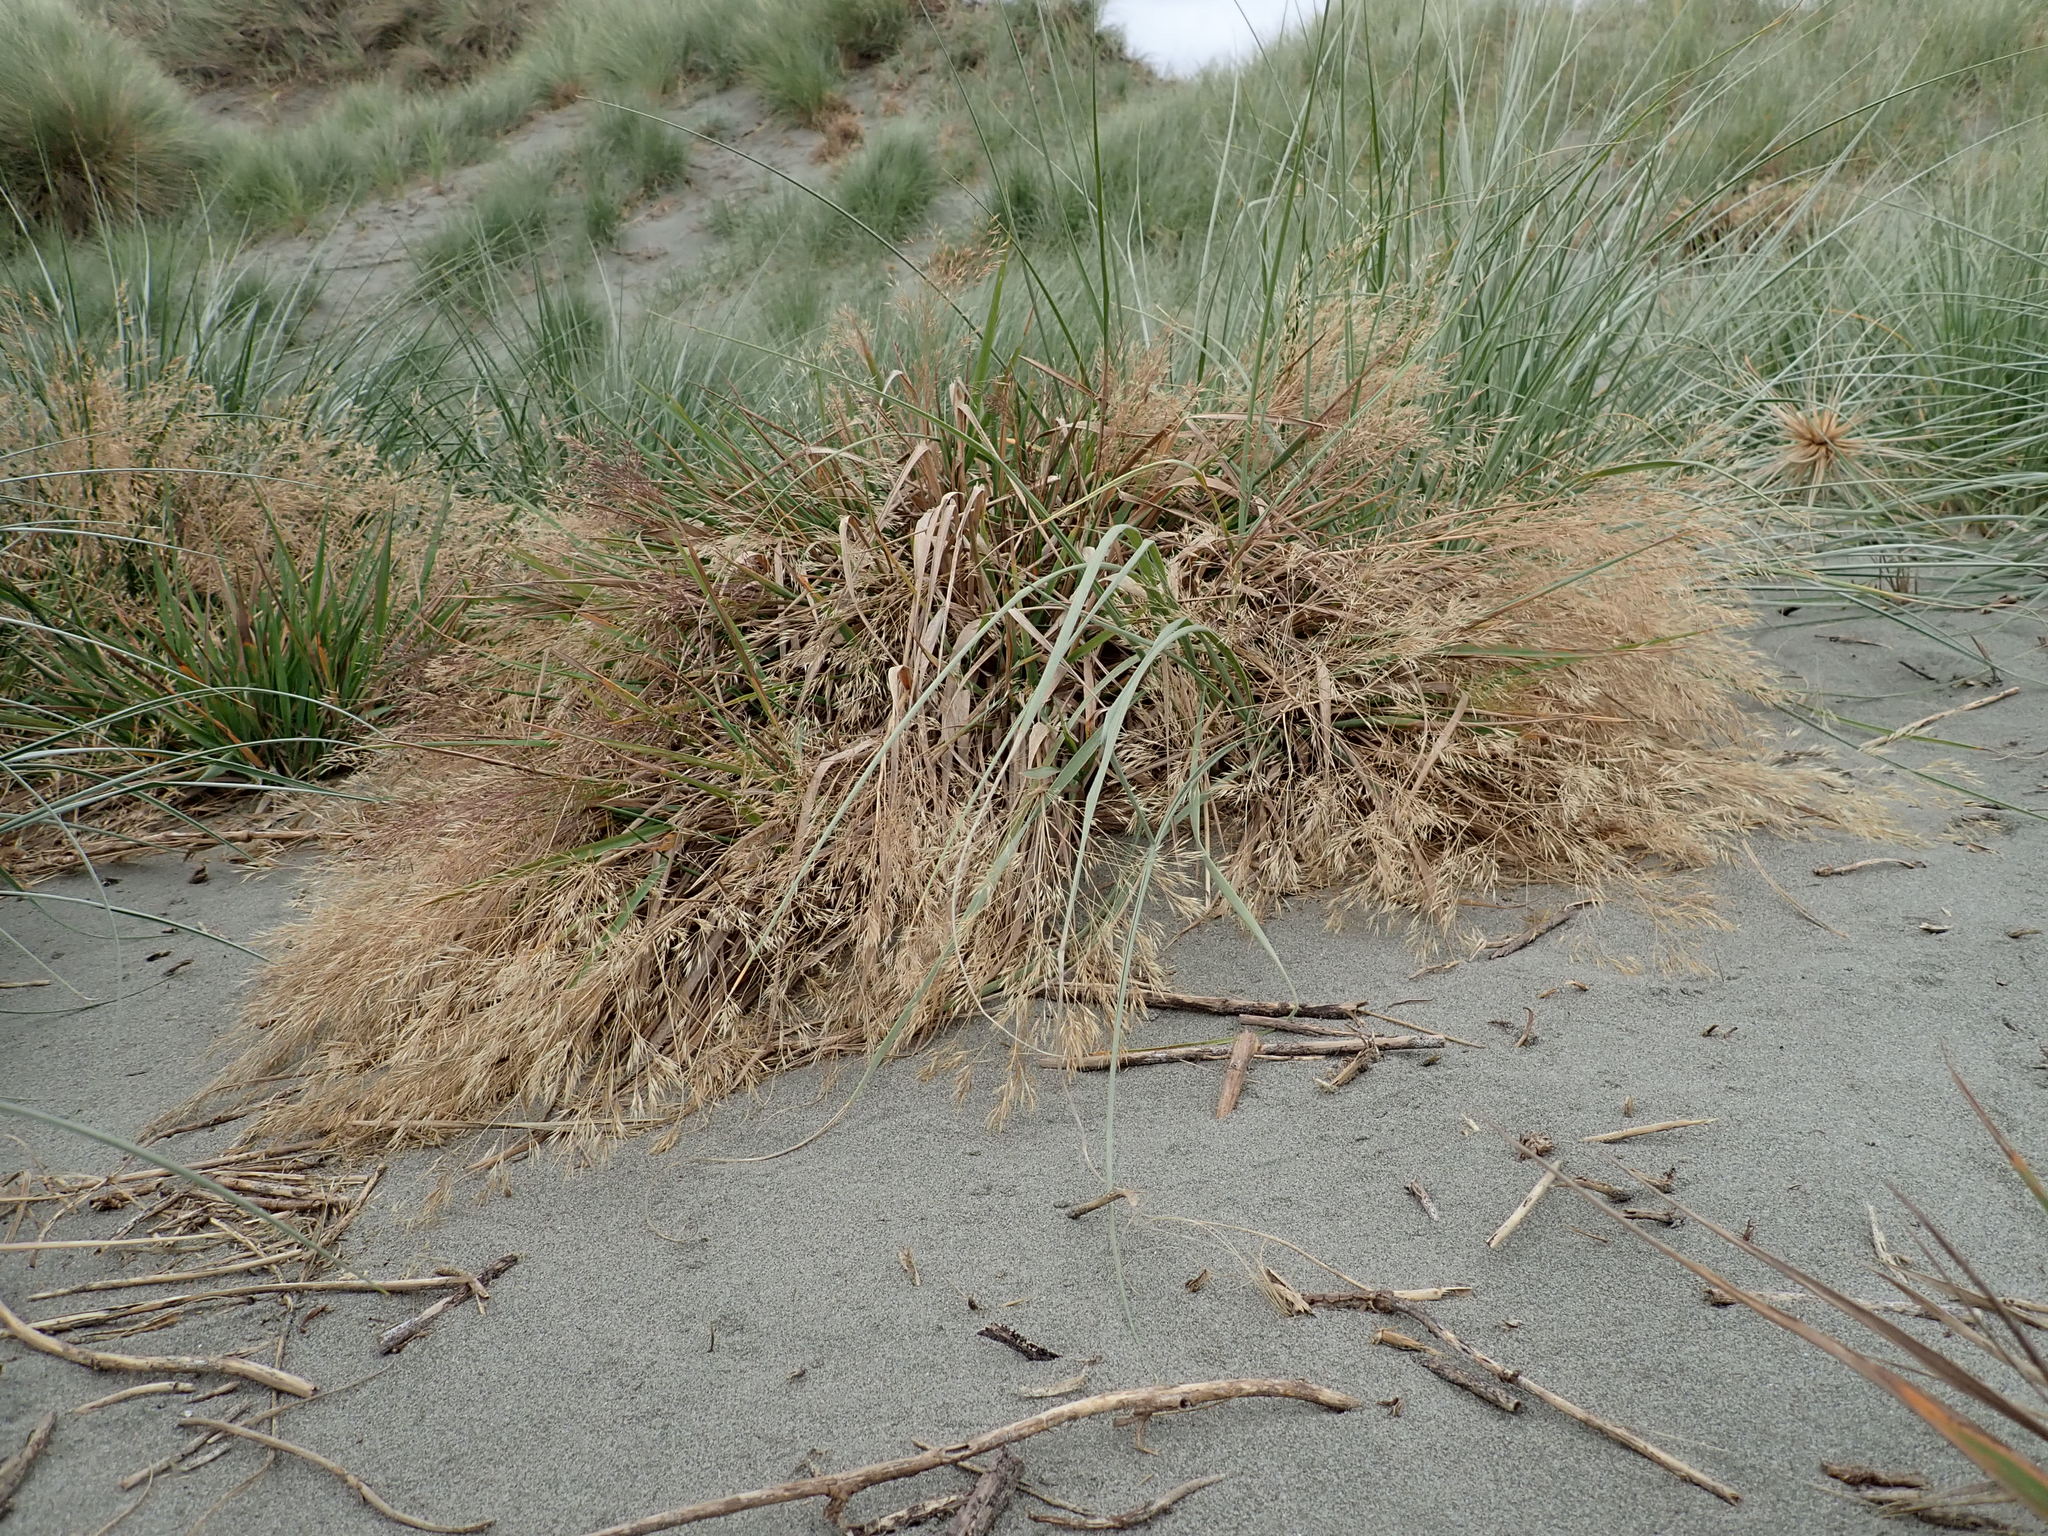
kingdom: Plantae
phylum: Tracheophyta
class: Liliopsida
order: Poales
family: Poaceae
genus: Lachnagrostis
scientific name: Lachnagrostis billardierei
